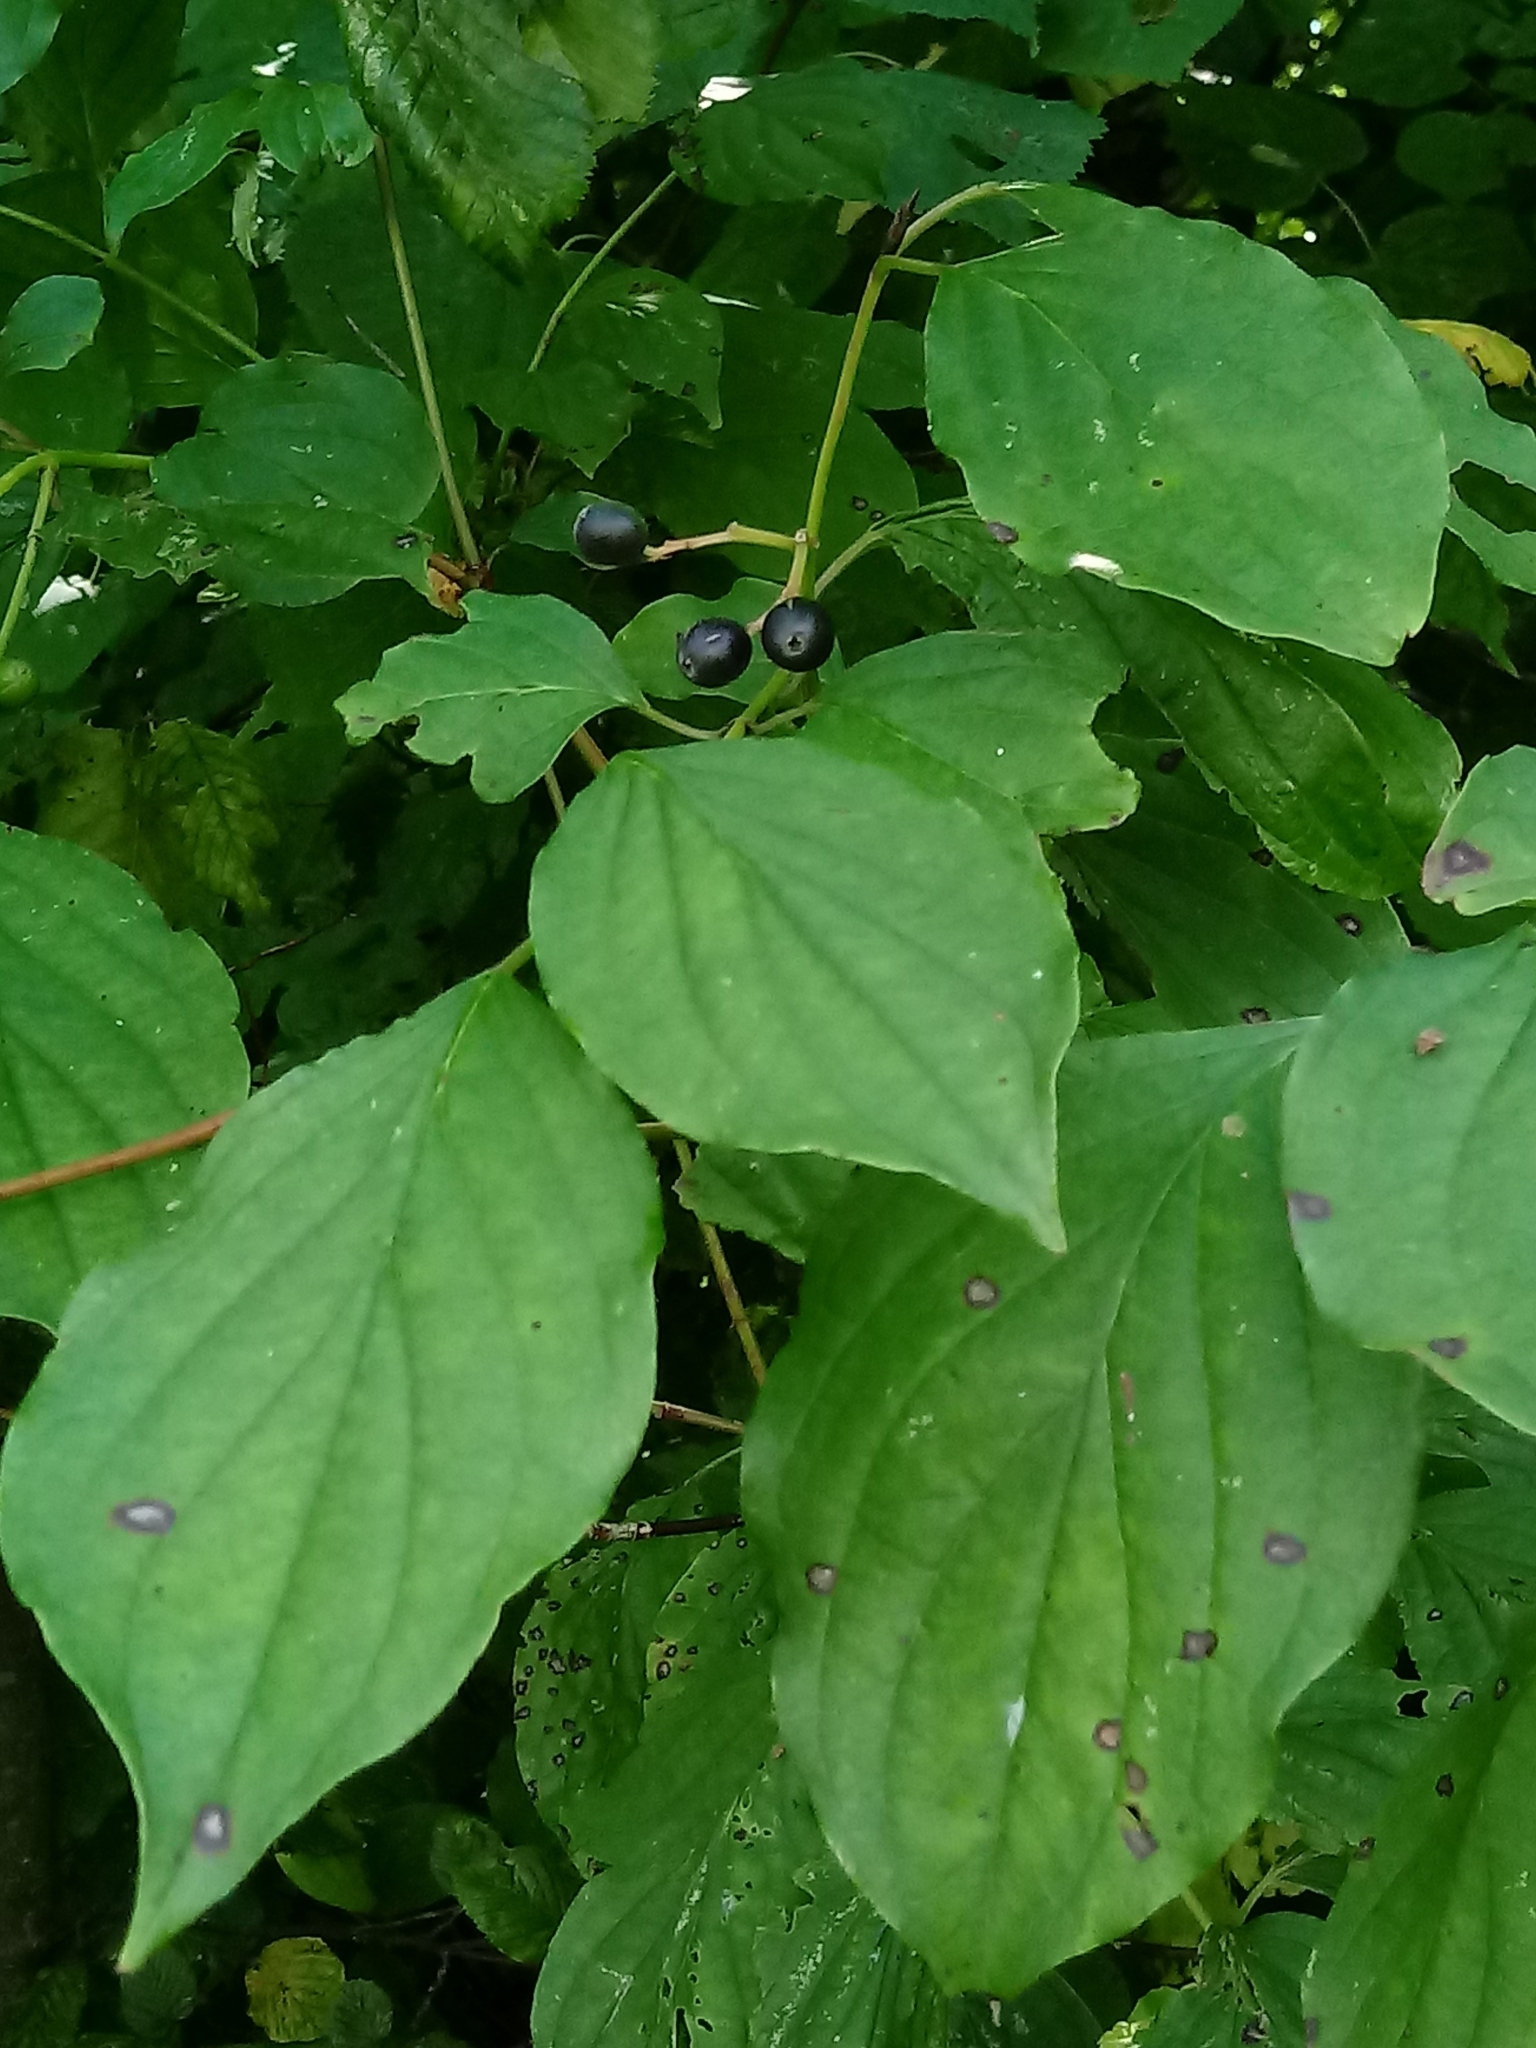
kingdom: Plantae
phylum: Tracheophyta
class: Magnoliopsida
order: Cornales
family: Cornaceae
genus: Cornus
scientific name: Cornus sanguinea
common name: Dogwood
